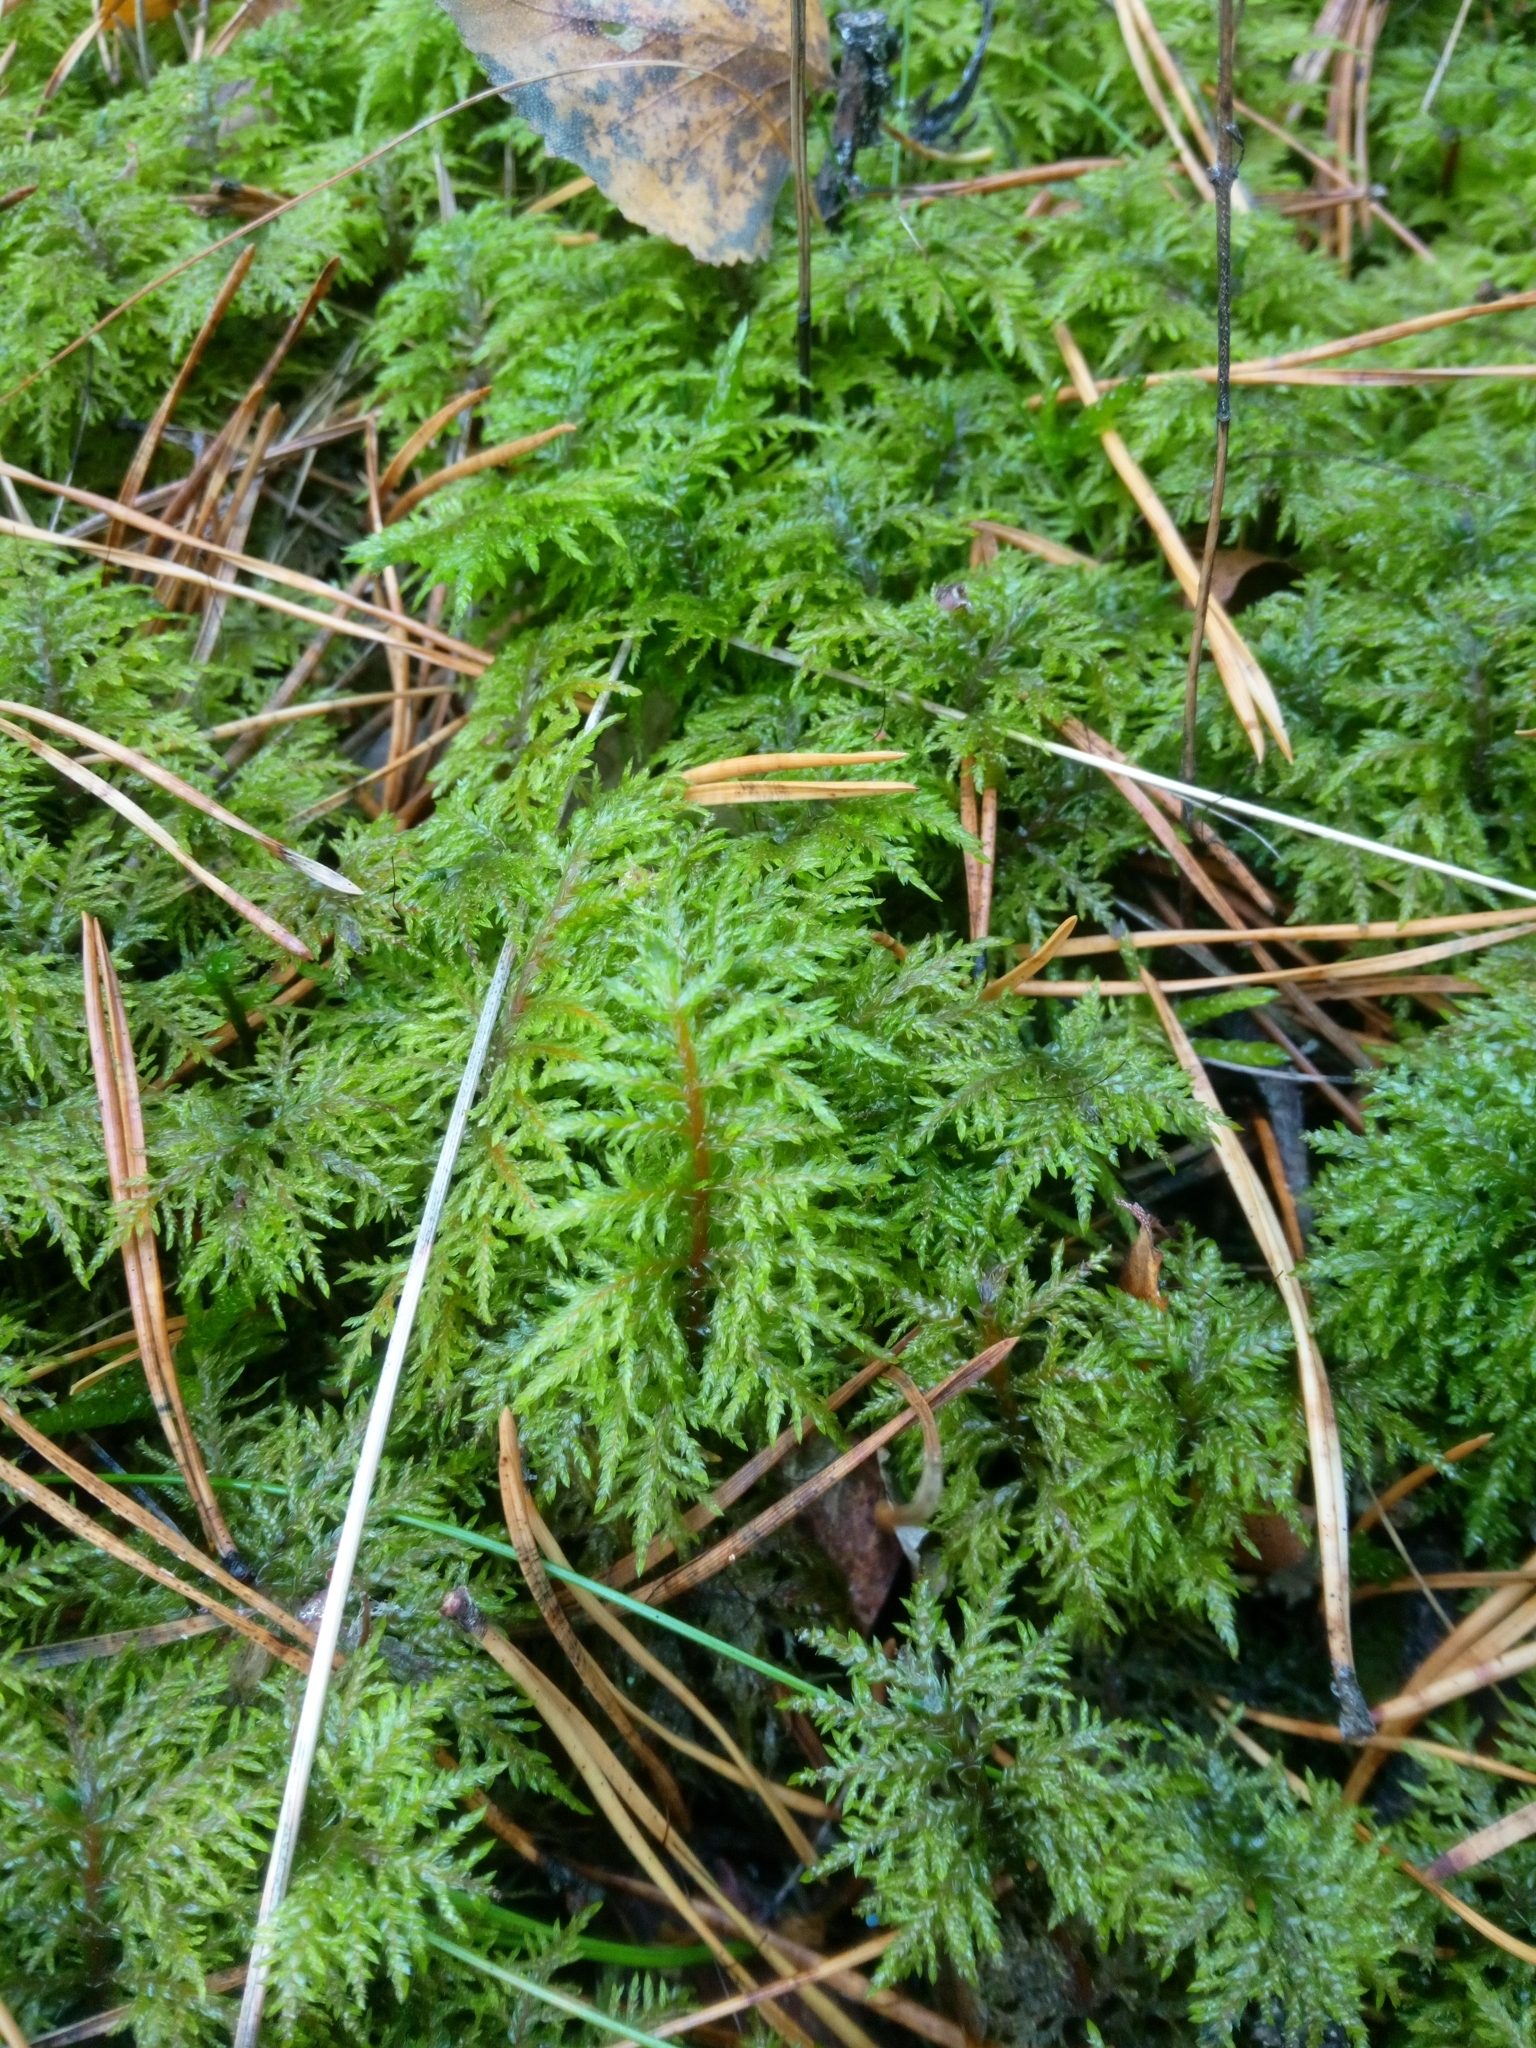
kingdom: Plantae
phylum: Bryophyta
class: Bryopsida
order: Hypnales
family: Hylocomiaceae
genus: Hylocomium
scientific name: Hylocomium splendens
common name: Stairstep moss
